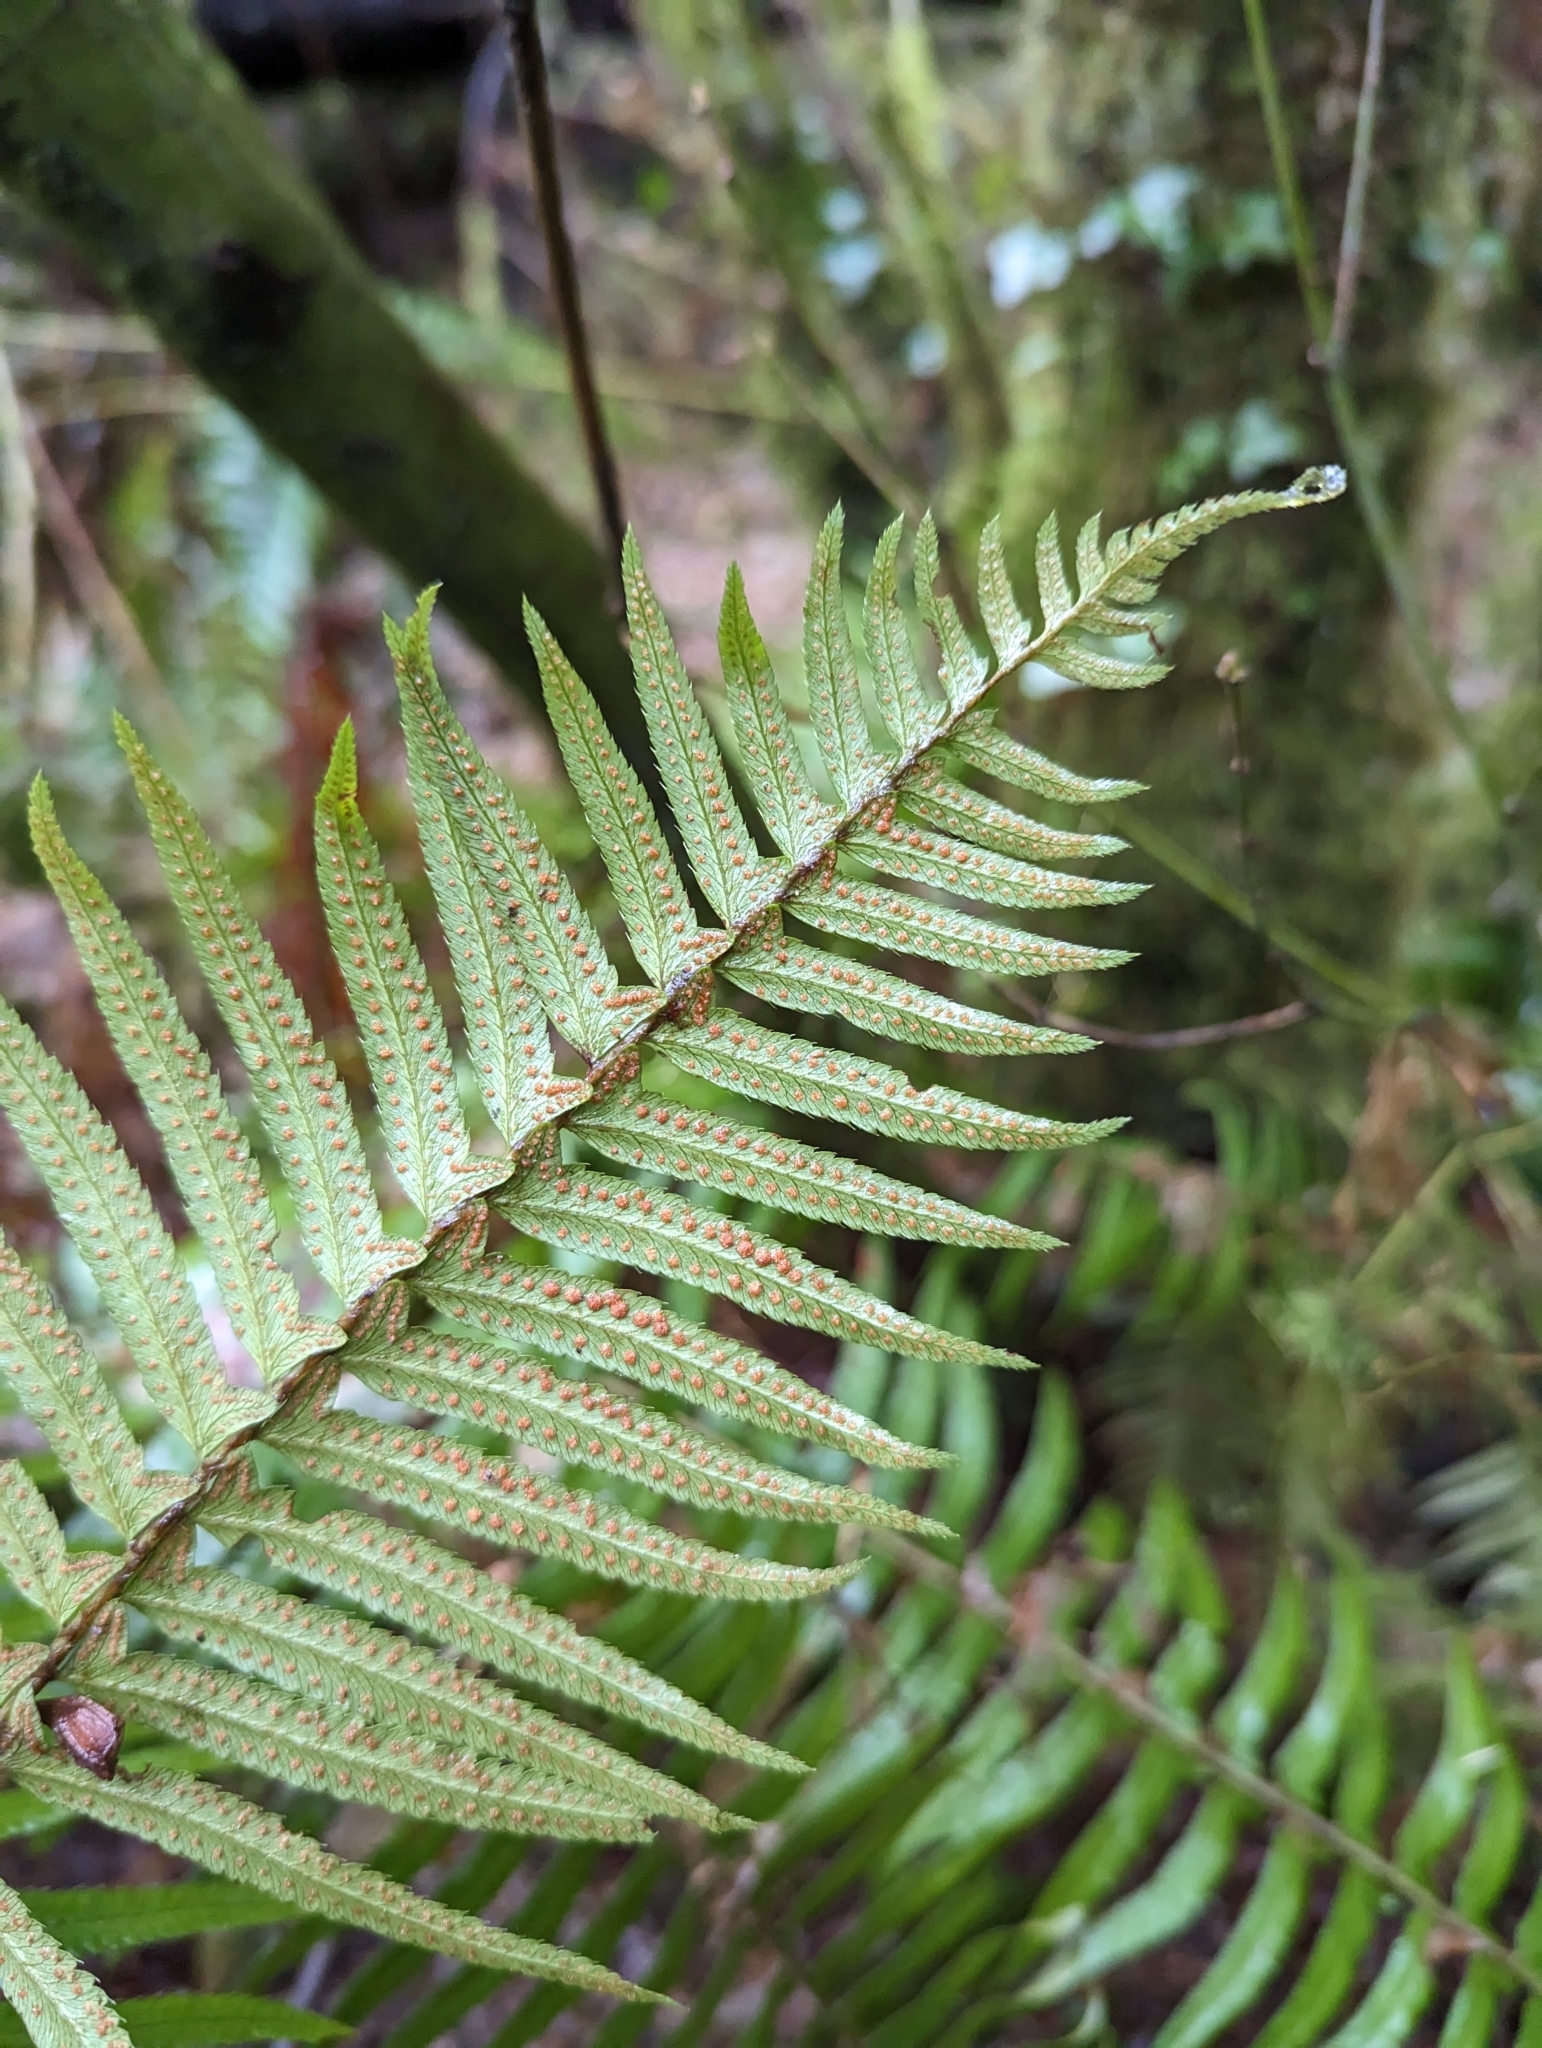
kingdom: Plantae
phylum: Tracheophyta
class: Polypodiopsida
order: Polypodiales
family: Dryopteridaceae
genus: Polystichum
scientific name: Polystichum munitum
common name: Western sword-fern
